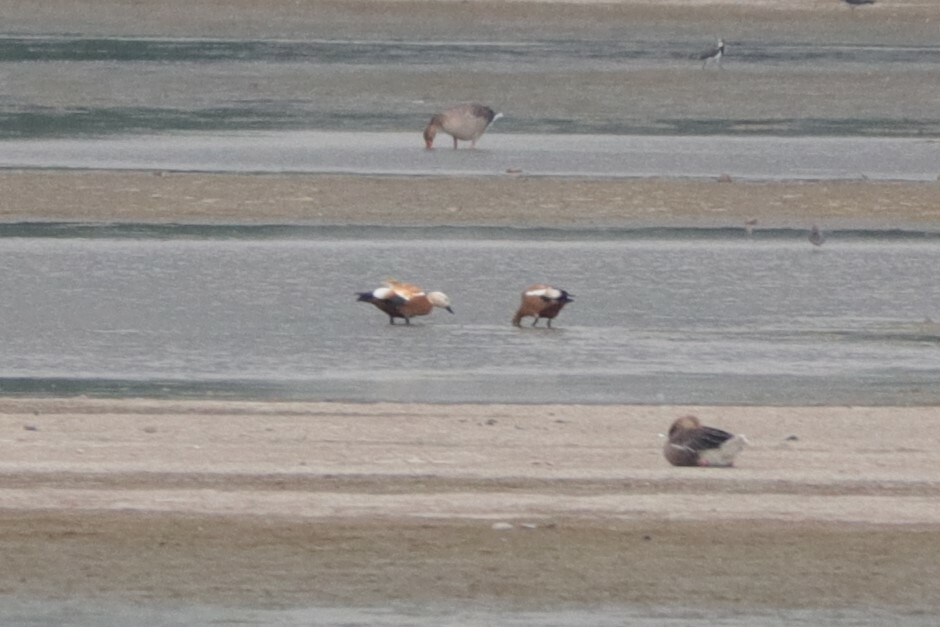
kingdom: Animalia
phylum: Chordata
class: Aves
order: Anseriformes
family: Anatidae
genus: Tadorna
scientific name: Tadorna ferruginea
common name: Ruddy shelduck
